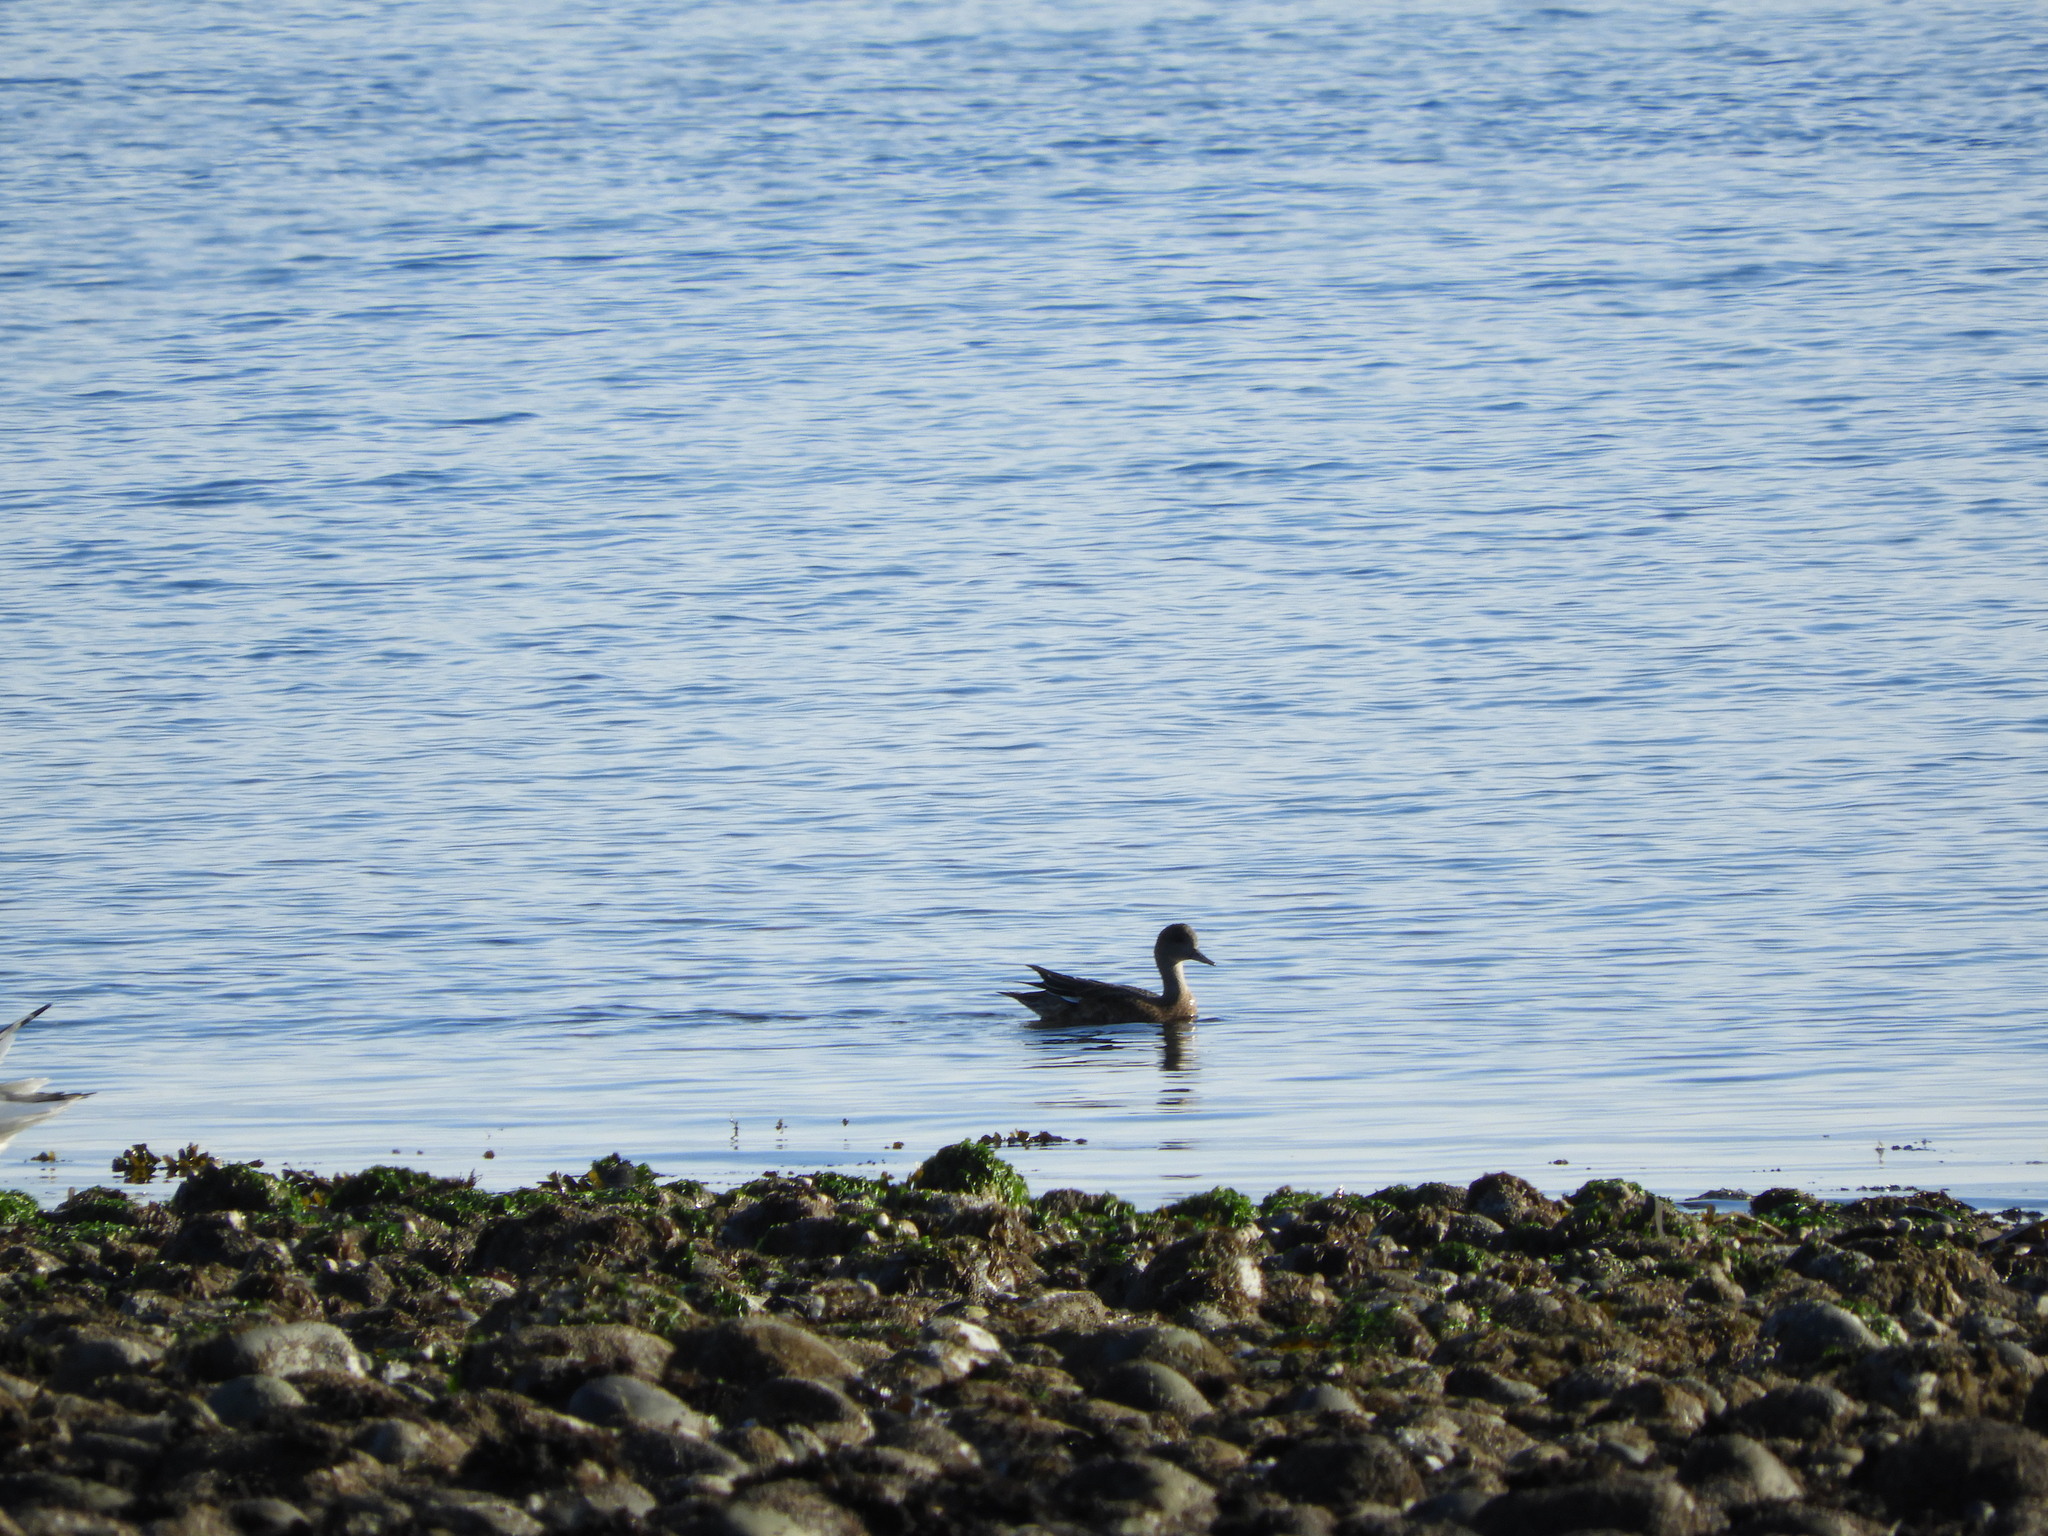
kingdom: Animalia
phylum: Chordata
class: Aves
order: Anseriformes
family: Anatidae
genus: Mareca
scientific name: Mareca americana
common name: American wigeon
